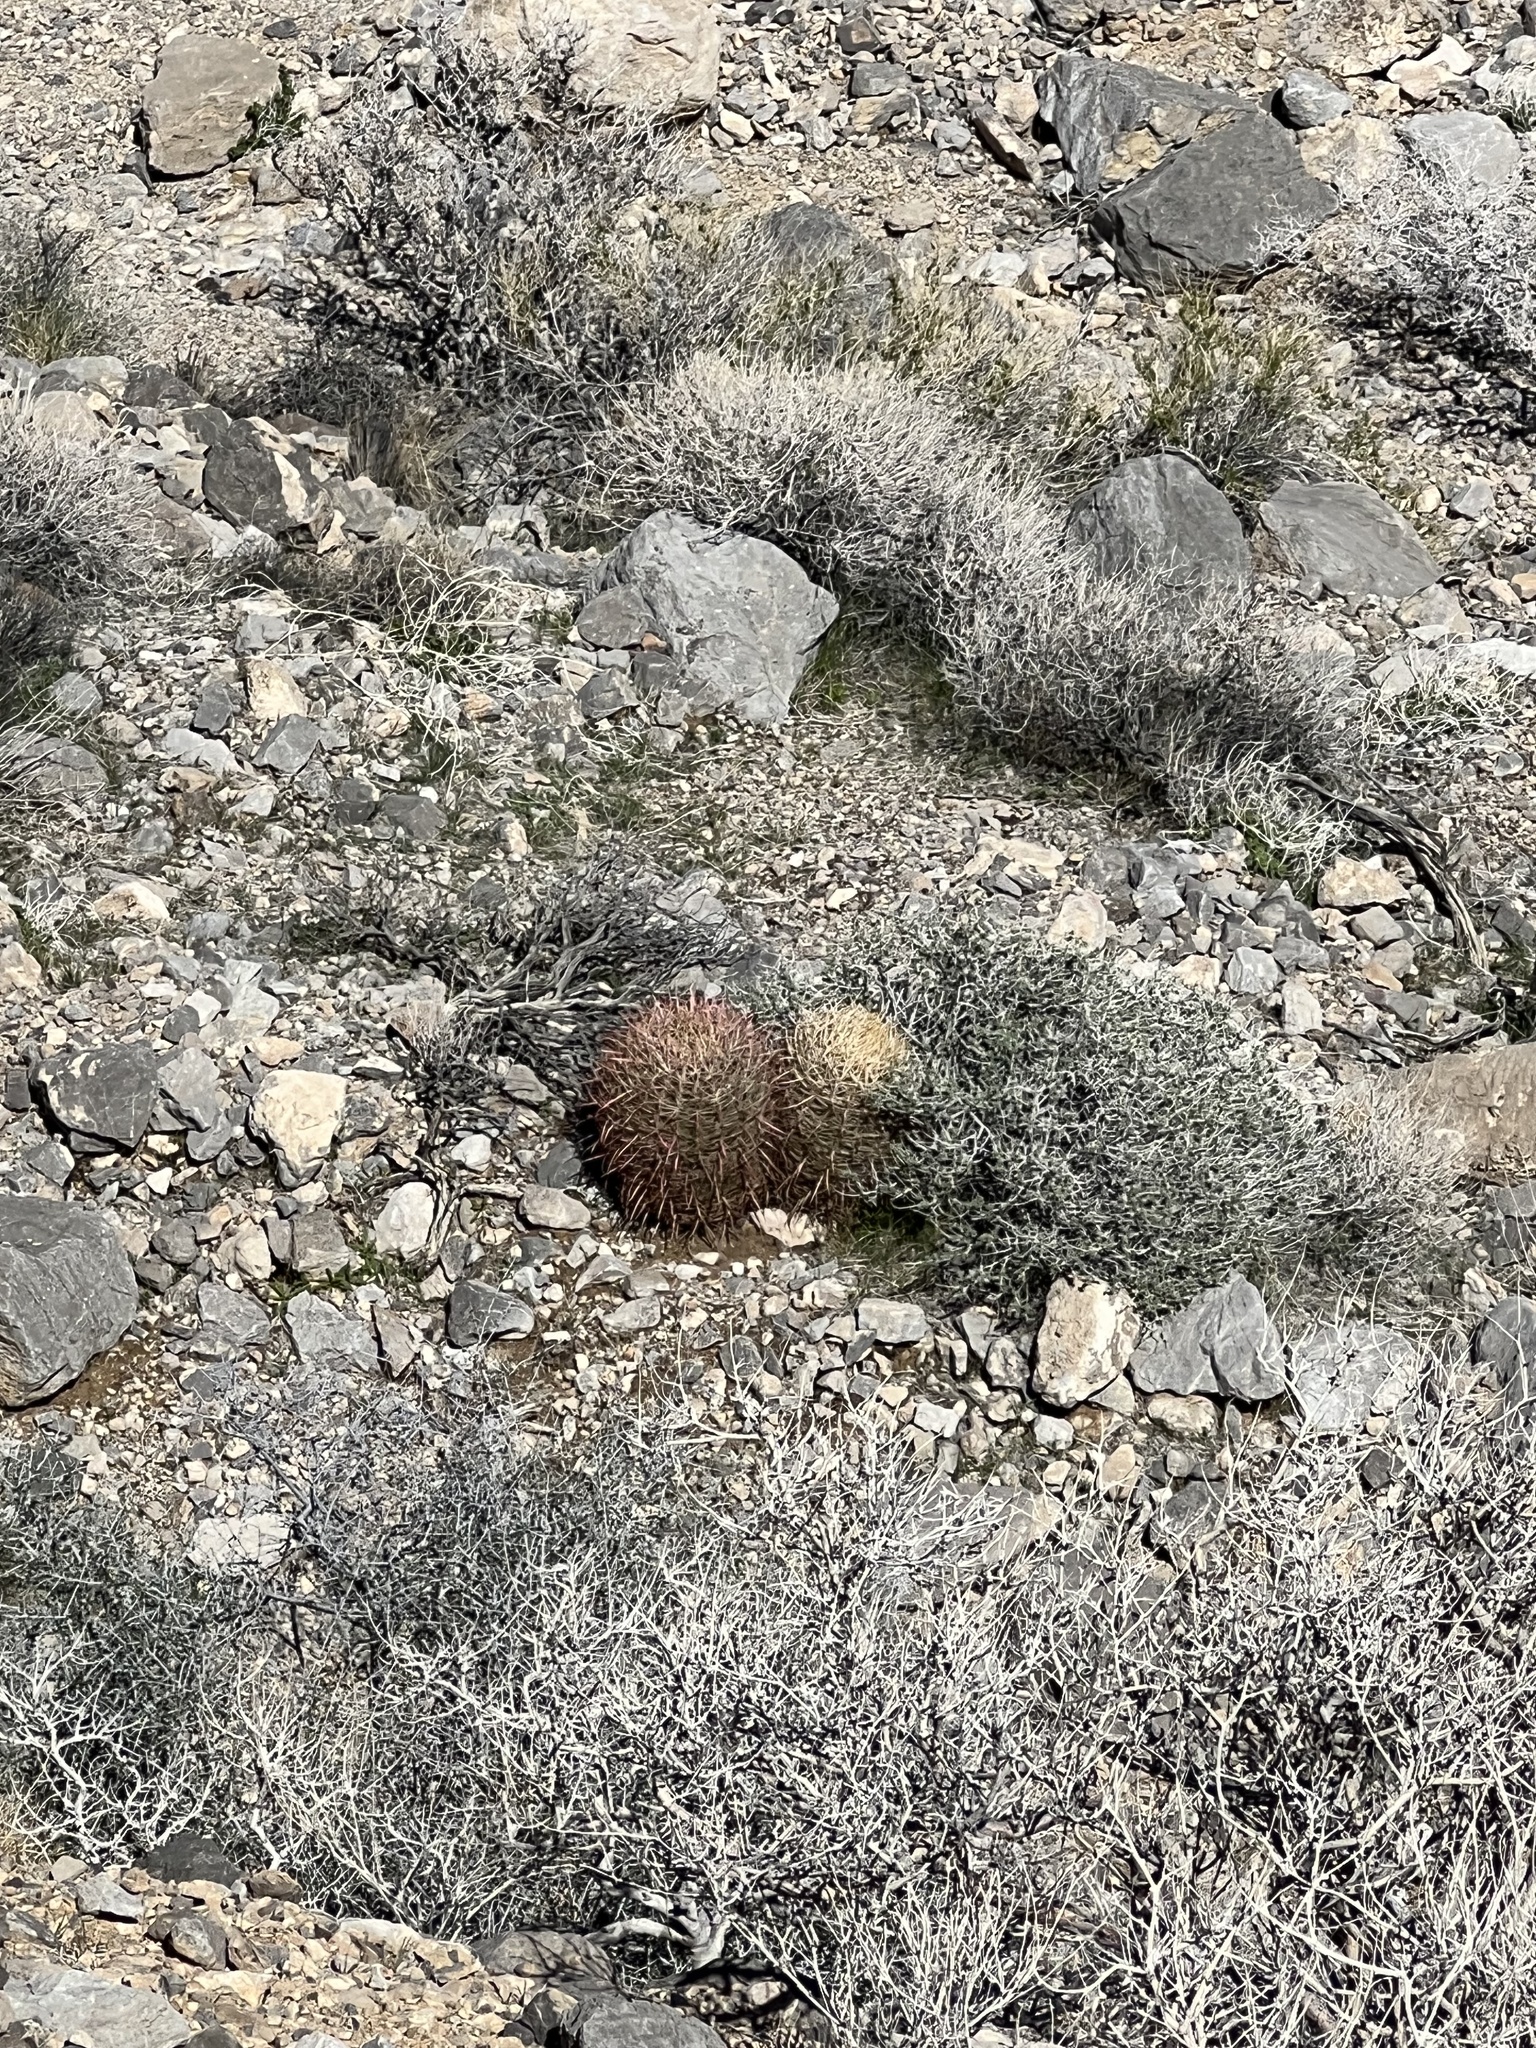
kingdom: Plantae
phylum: Tracheophyta
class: Magnoliopsida
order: Caryophyllales
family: Cactaceae
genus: Ferocactus
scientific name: Ferocactus cylindraceus
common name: California barrel cactus
